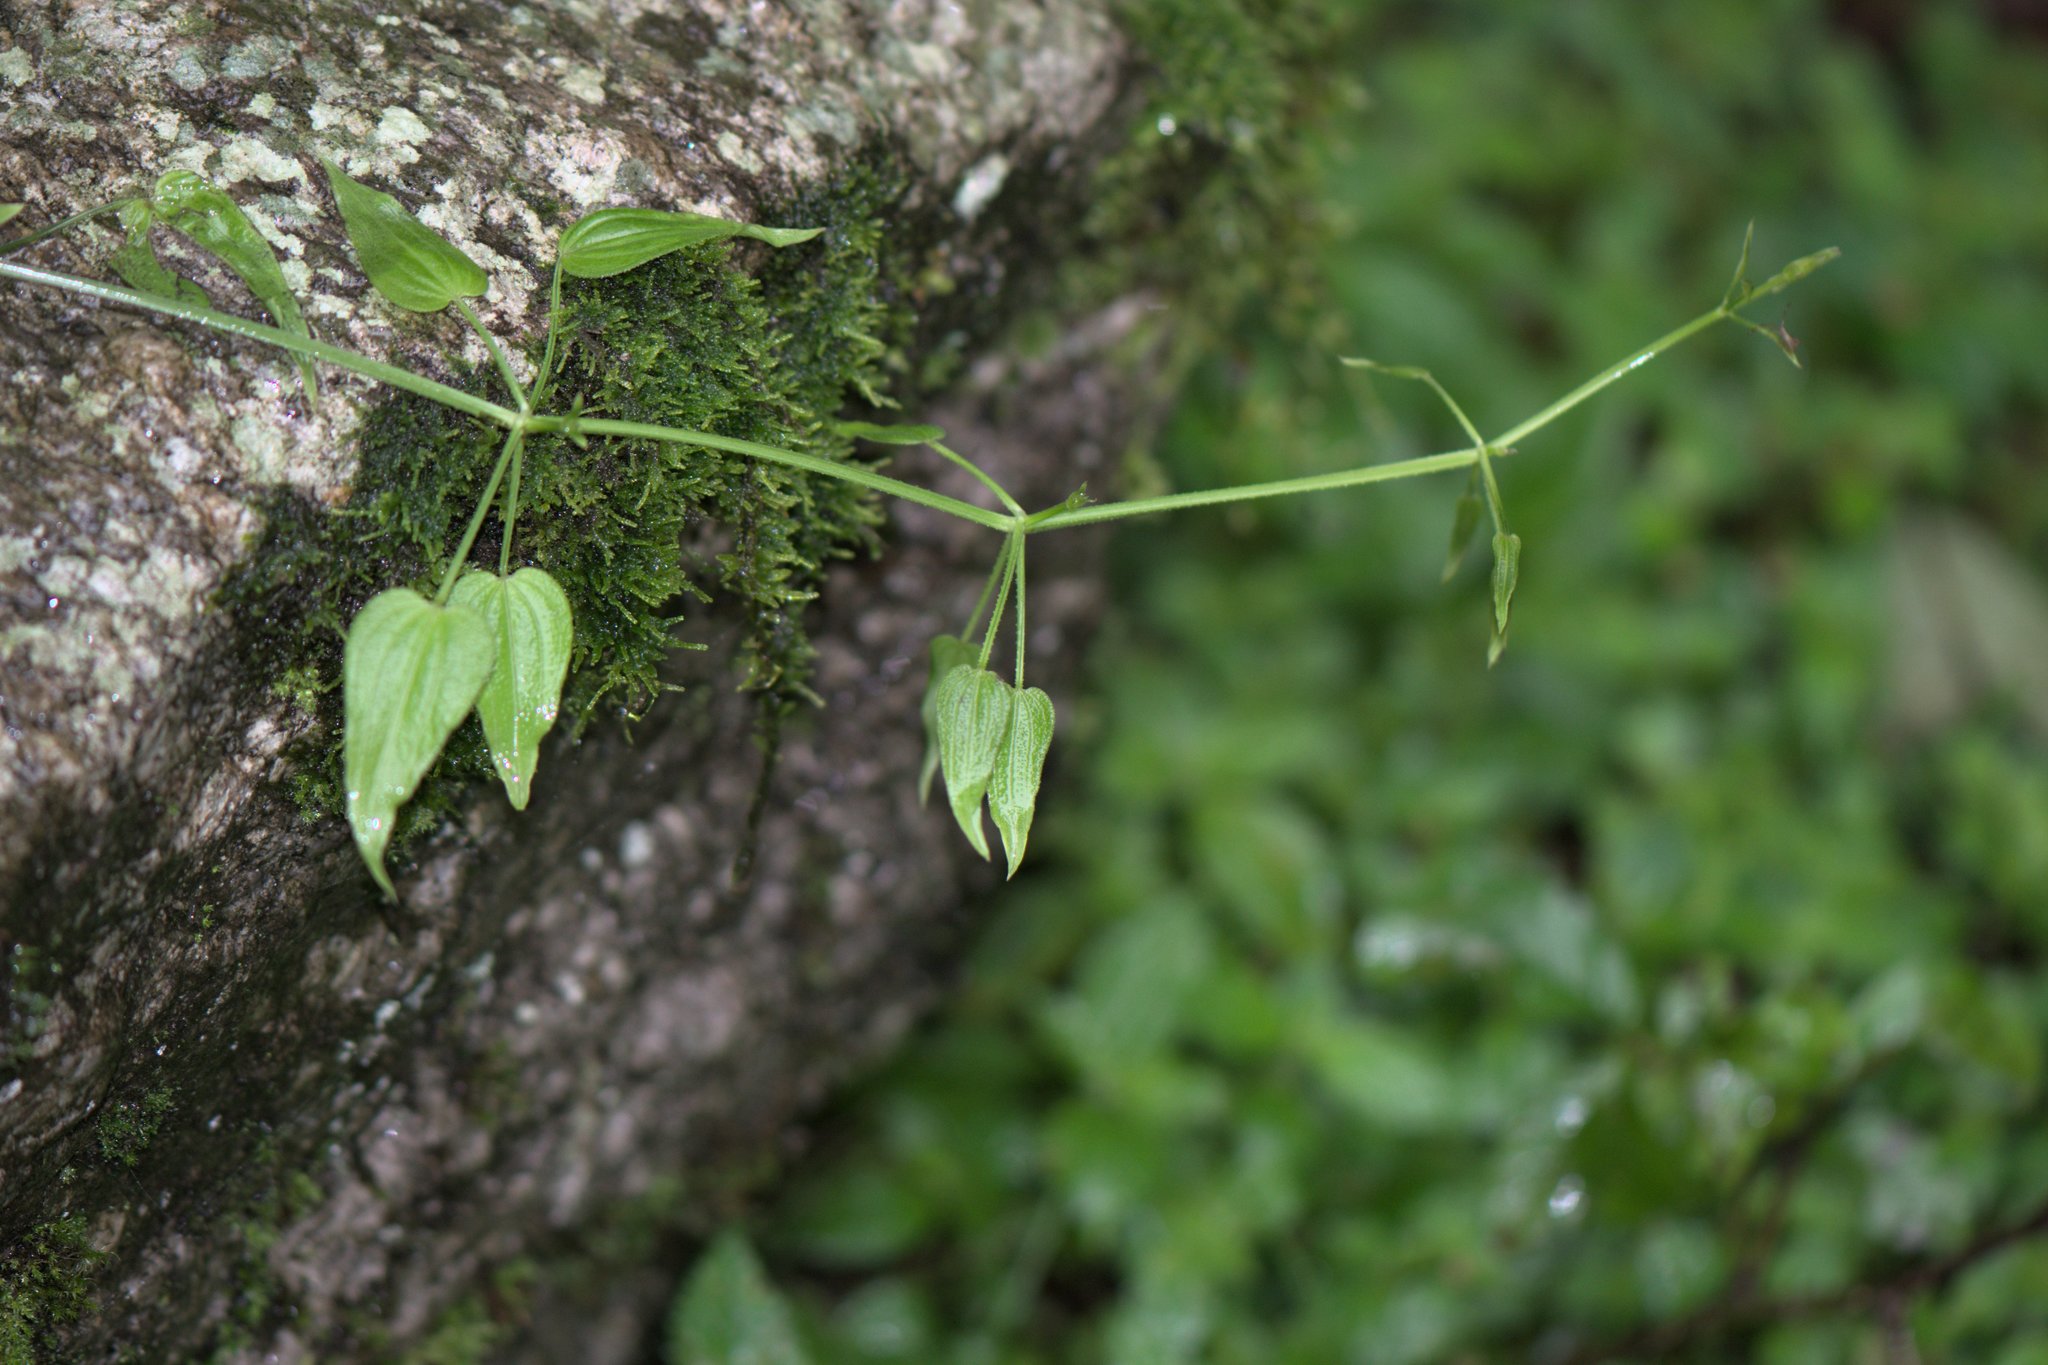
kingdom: Plantae
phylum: Tracheophyta
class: Magnoliopsida
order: Gentianales
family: Rubiaceae
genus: Rubia
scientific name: Rubia cordifolia
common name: Indian madder
